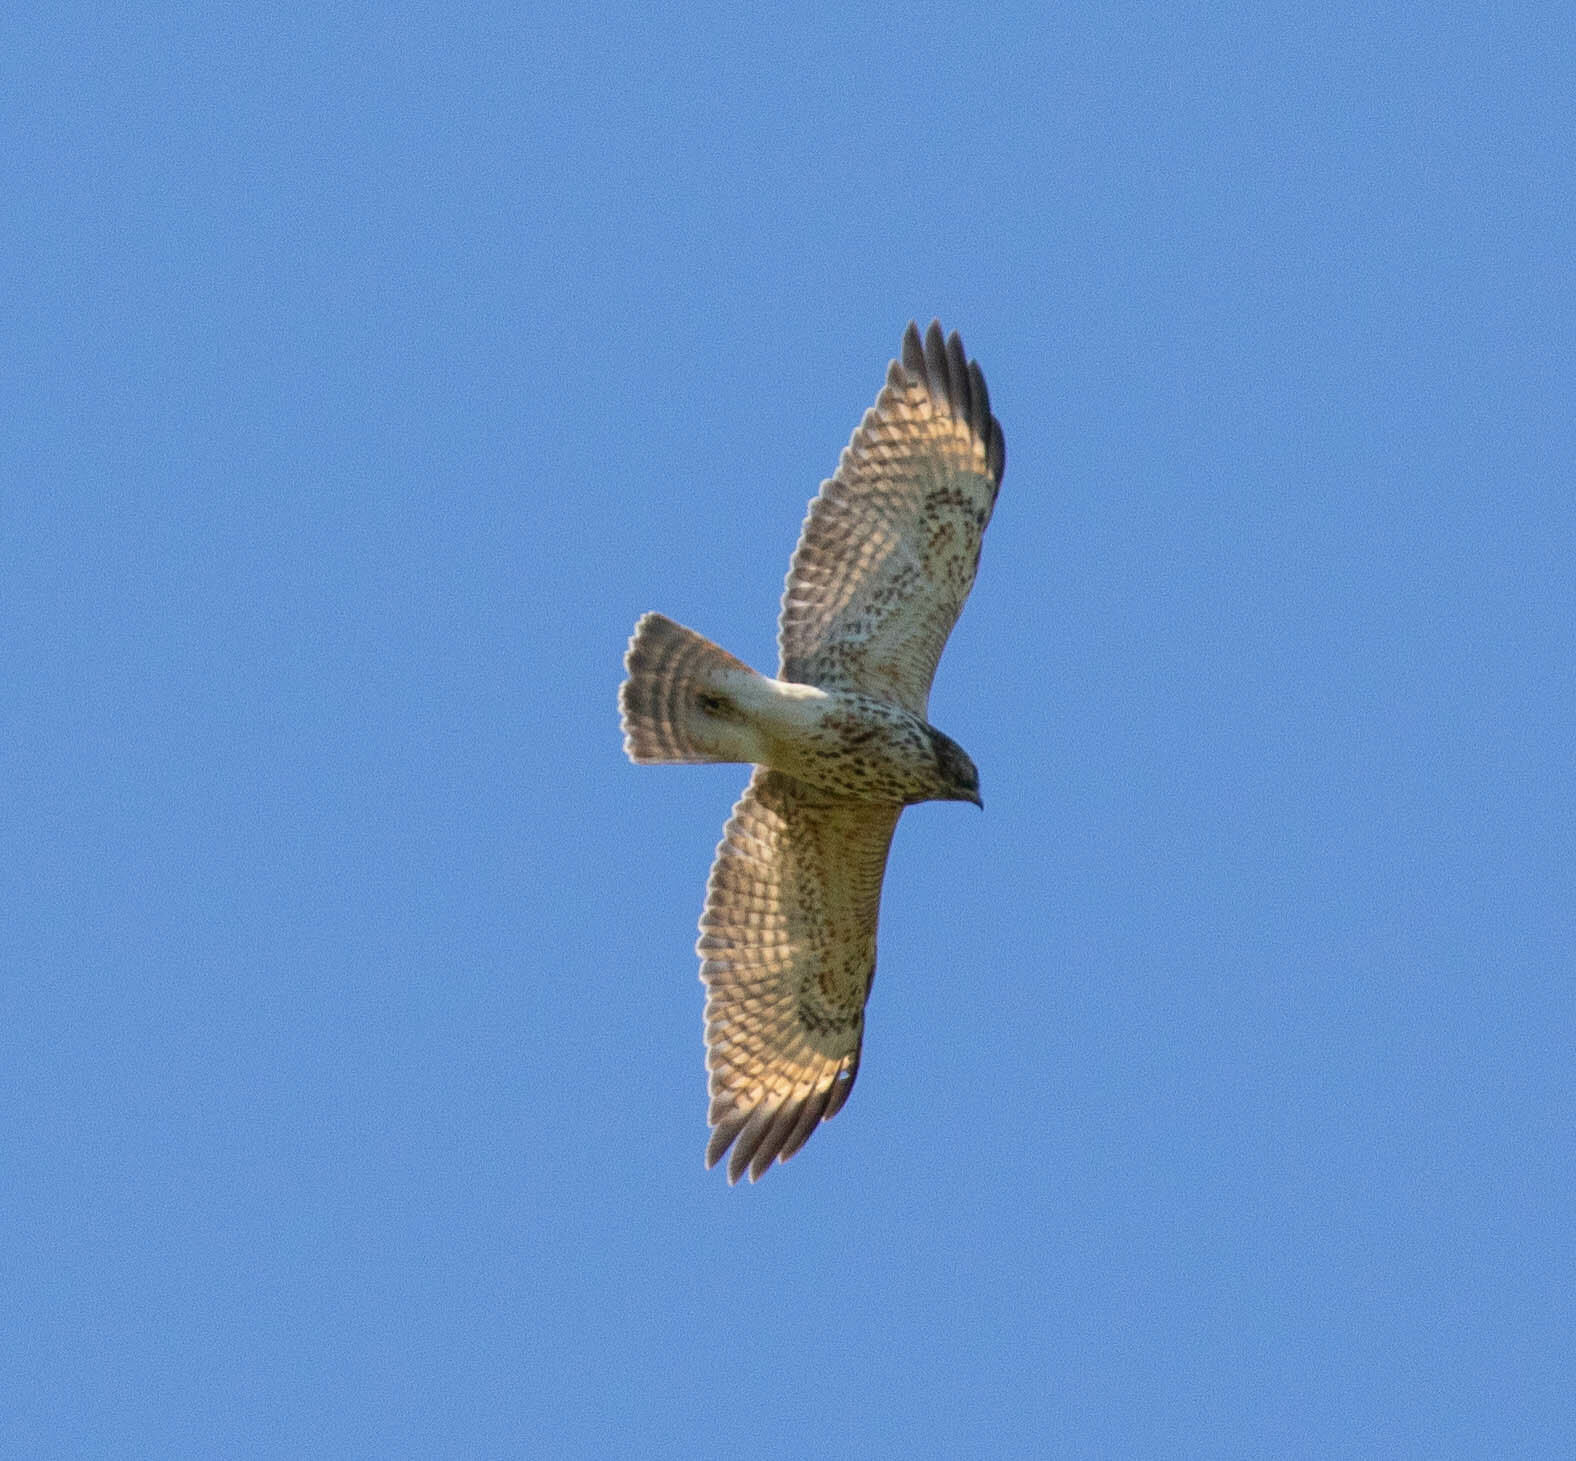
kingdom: Animalia
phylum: Chordata
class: Aves
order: Accipitriformes
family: Accipitridae
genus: Buteo
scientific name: Buteo lineatus
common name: Red-shouldered hawk
